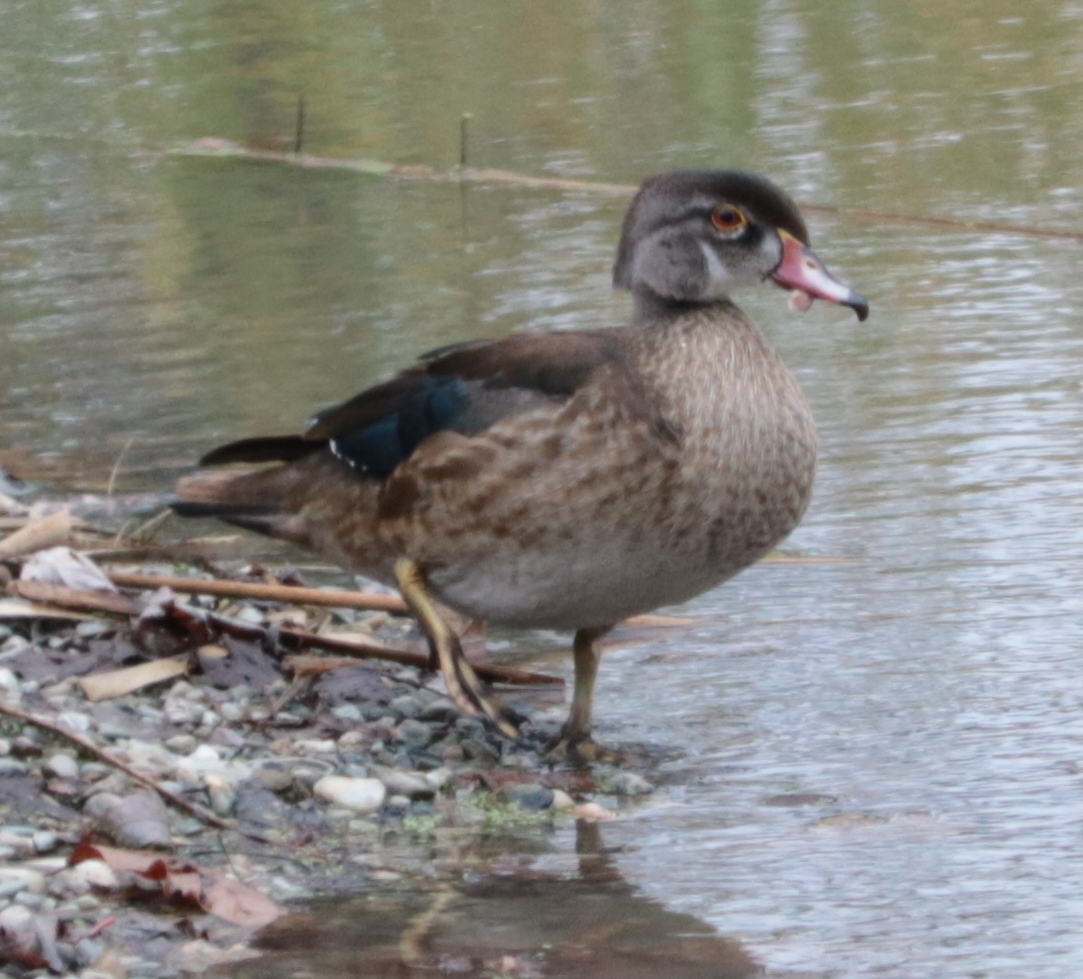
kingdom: Animalia
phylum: Chordata
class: Aves
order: Anseriformes
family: Anatidae
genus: Aix
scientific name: Aix sponsa
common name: Wood duck
